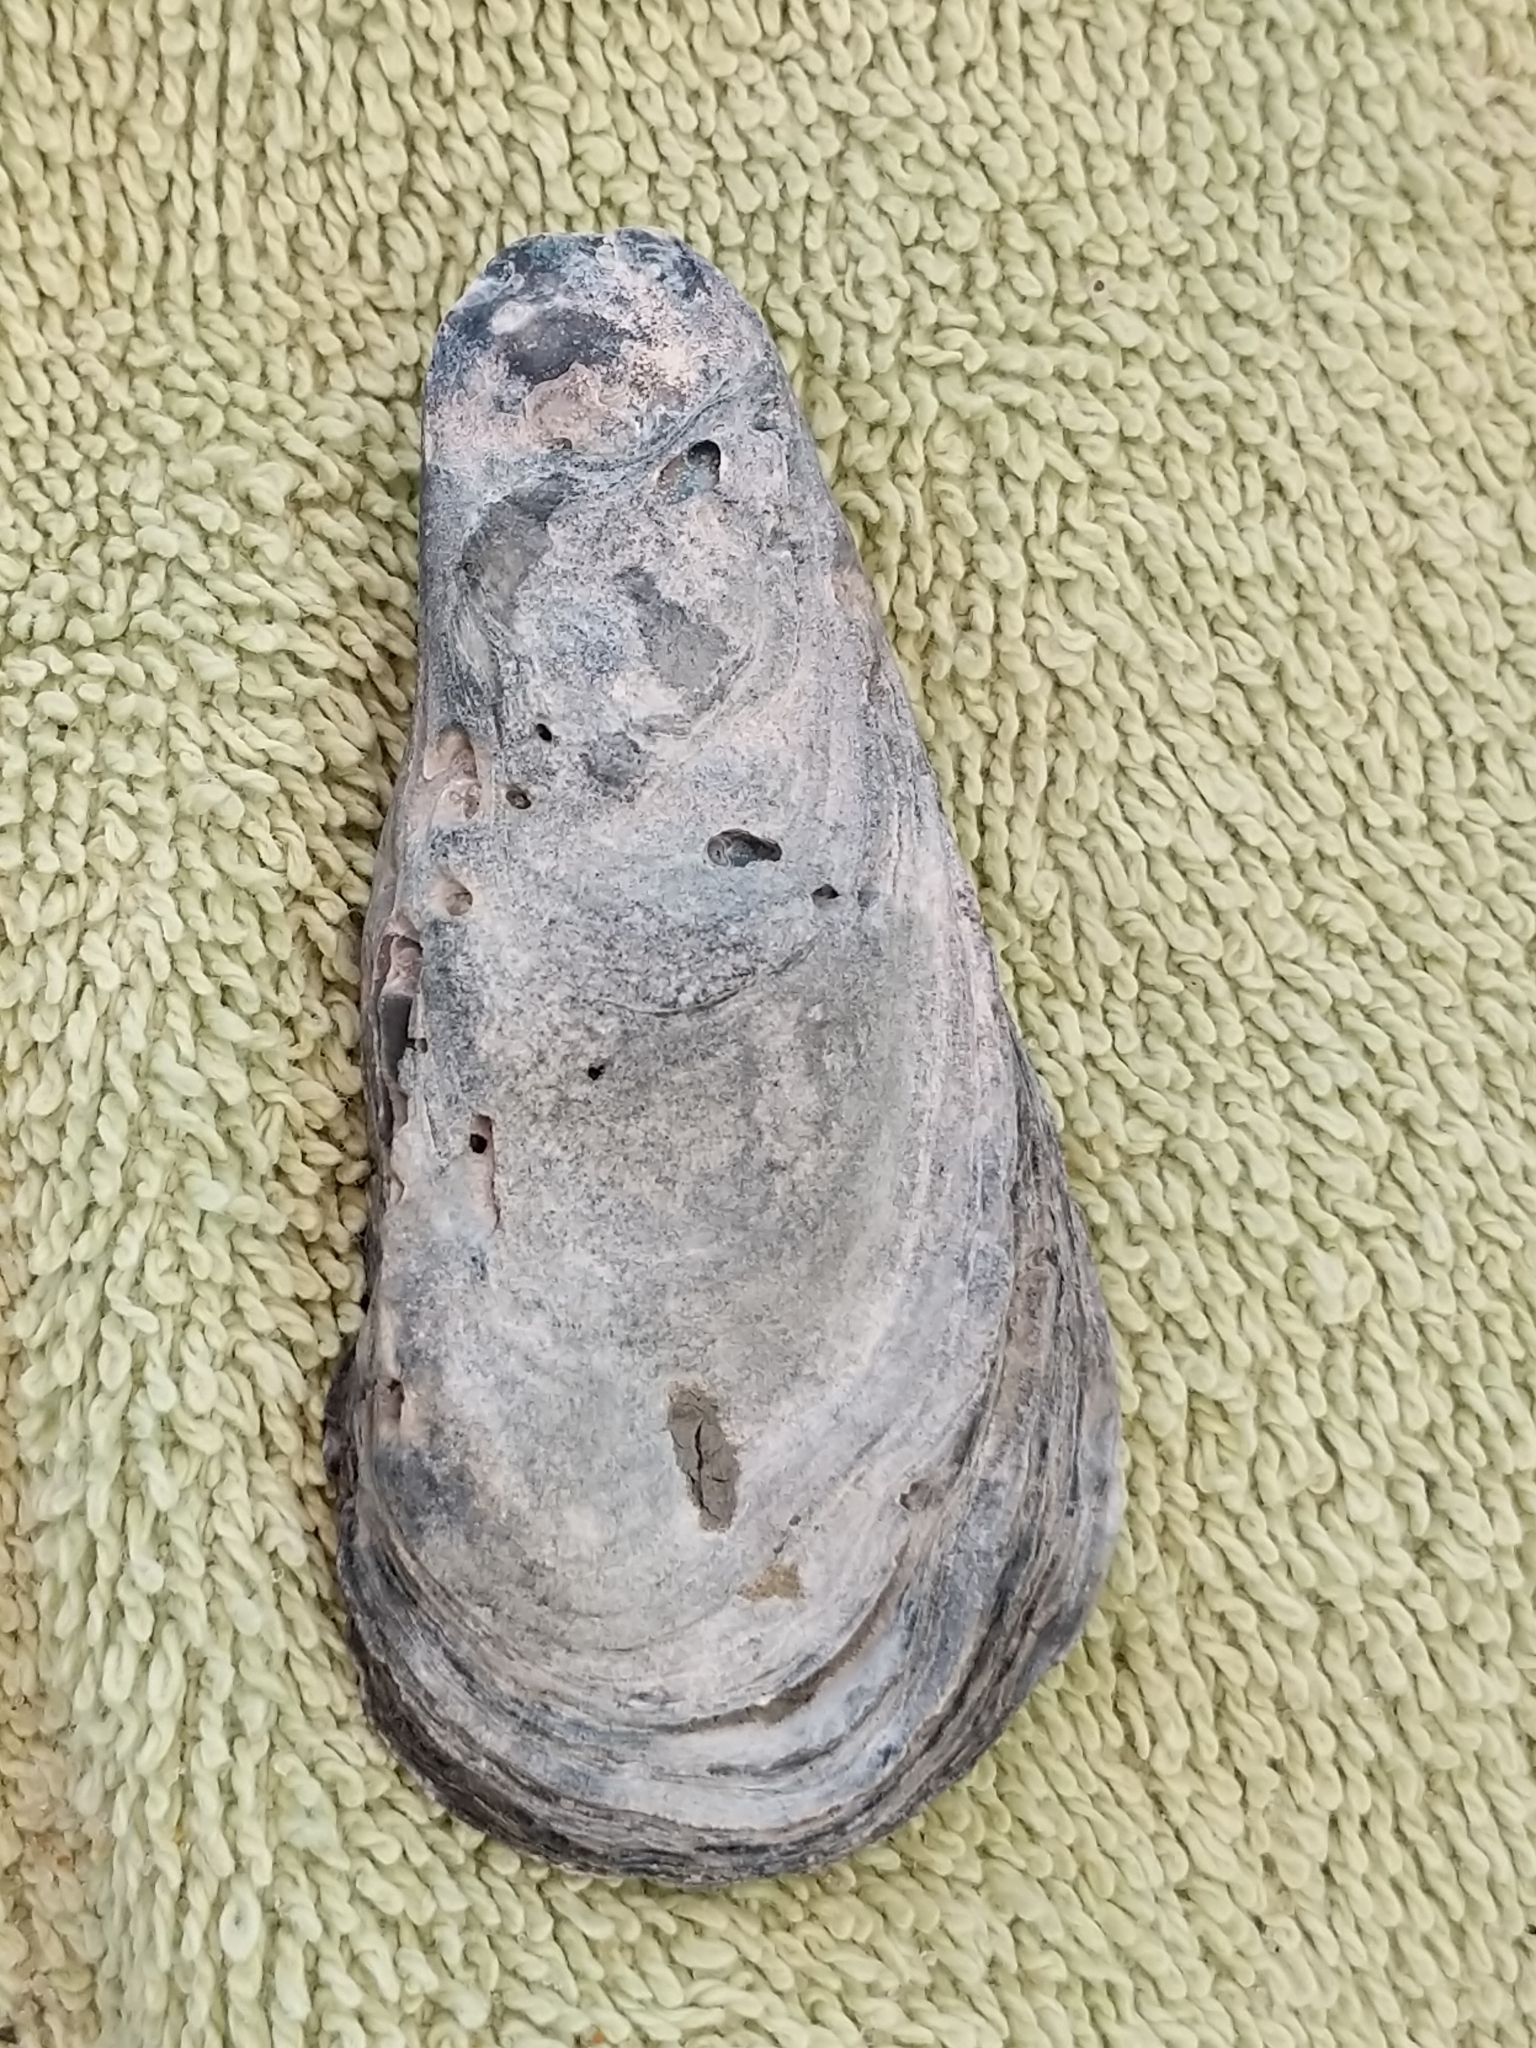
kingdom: Animalia
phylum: Mollusca
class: Bivalvia
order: Ostreida
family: Ostreidae
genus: Crassostrea
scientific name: Crassostrea virginica
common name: American oyster
